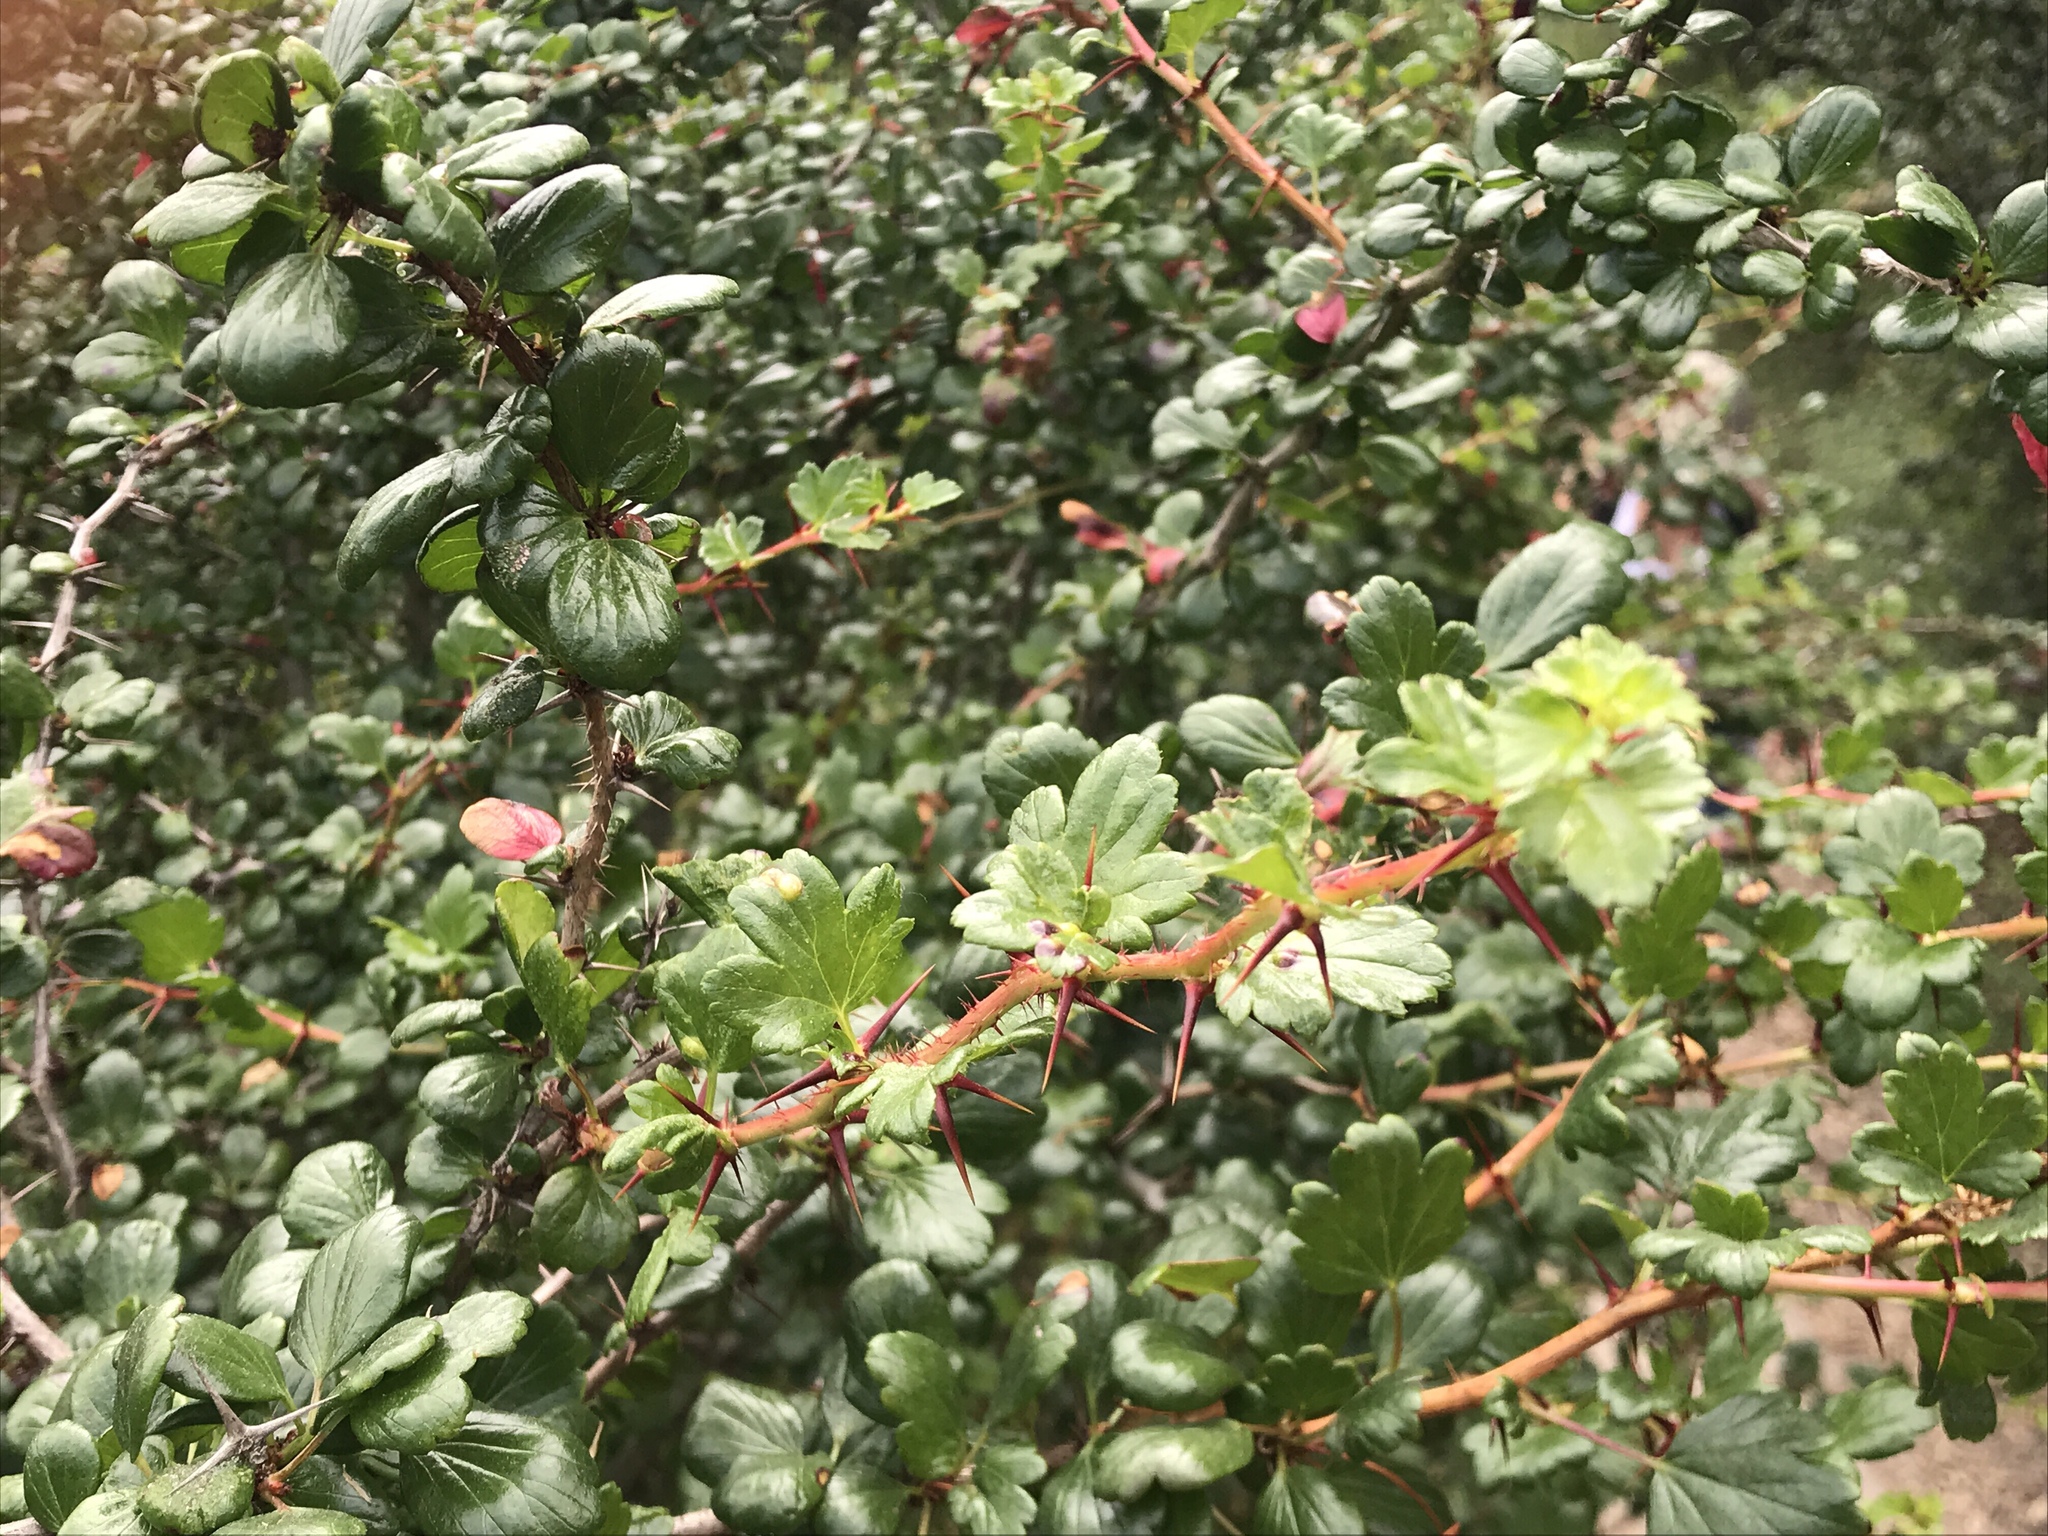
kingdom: Plantae
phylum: Tracheophyta
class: Magnoliopsida
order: Saxifragales
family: Grossulariaceae
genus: Ribes
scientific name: Ribes speciosum
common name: Fuchsia-flower gooseberry
